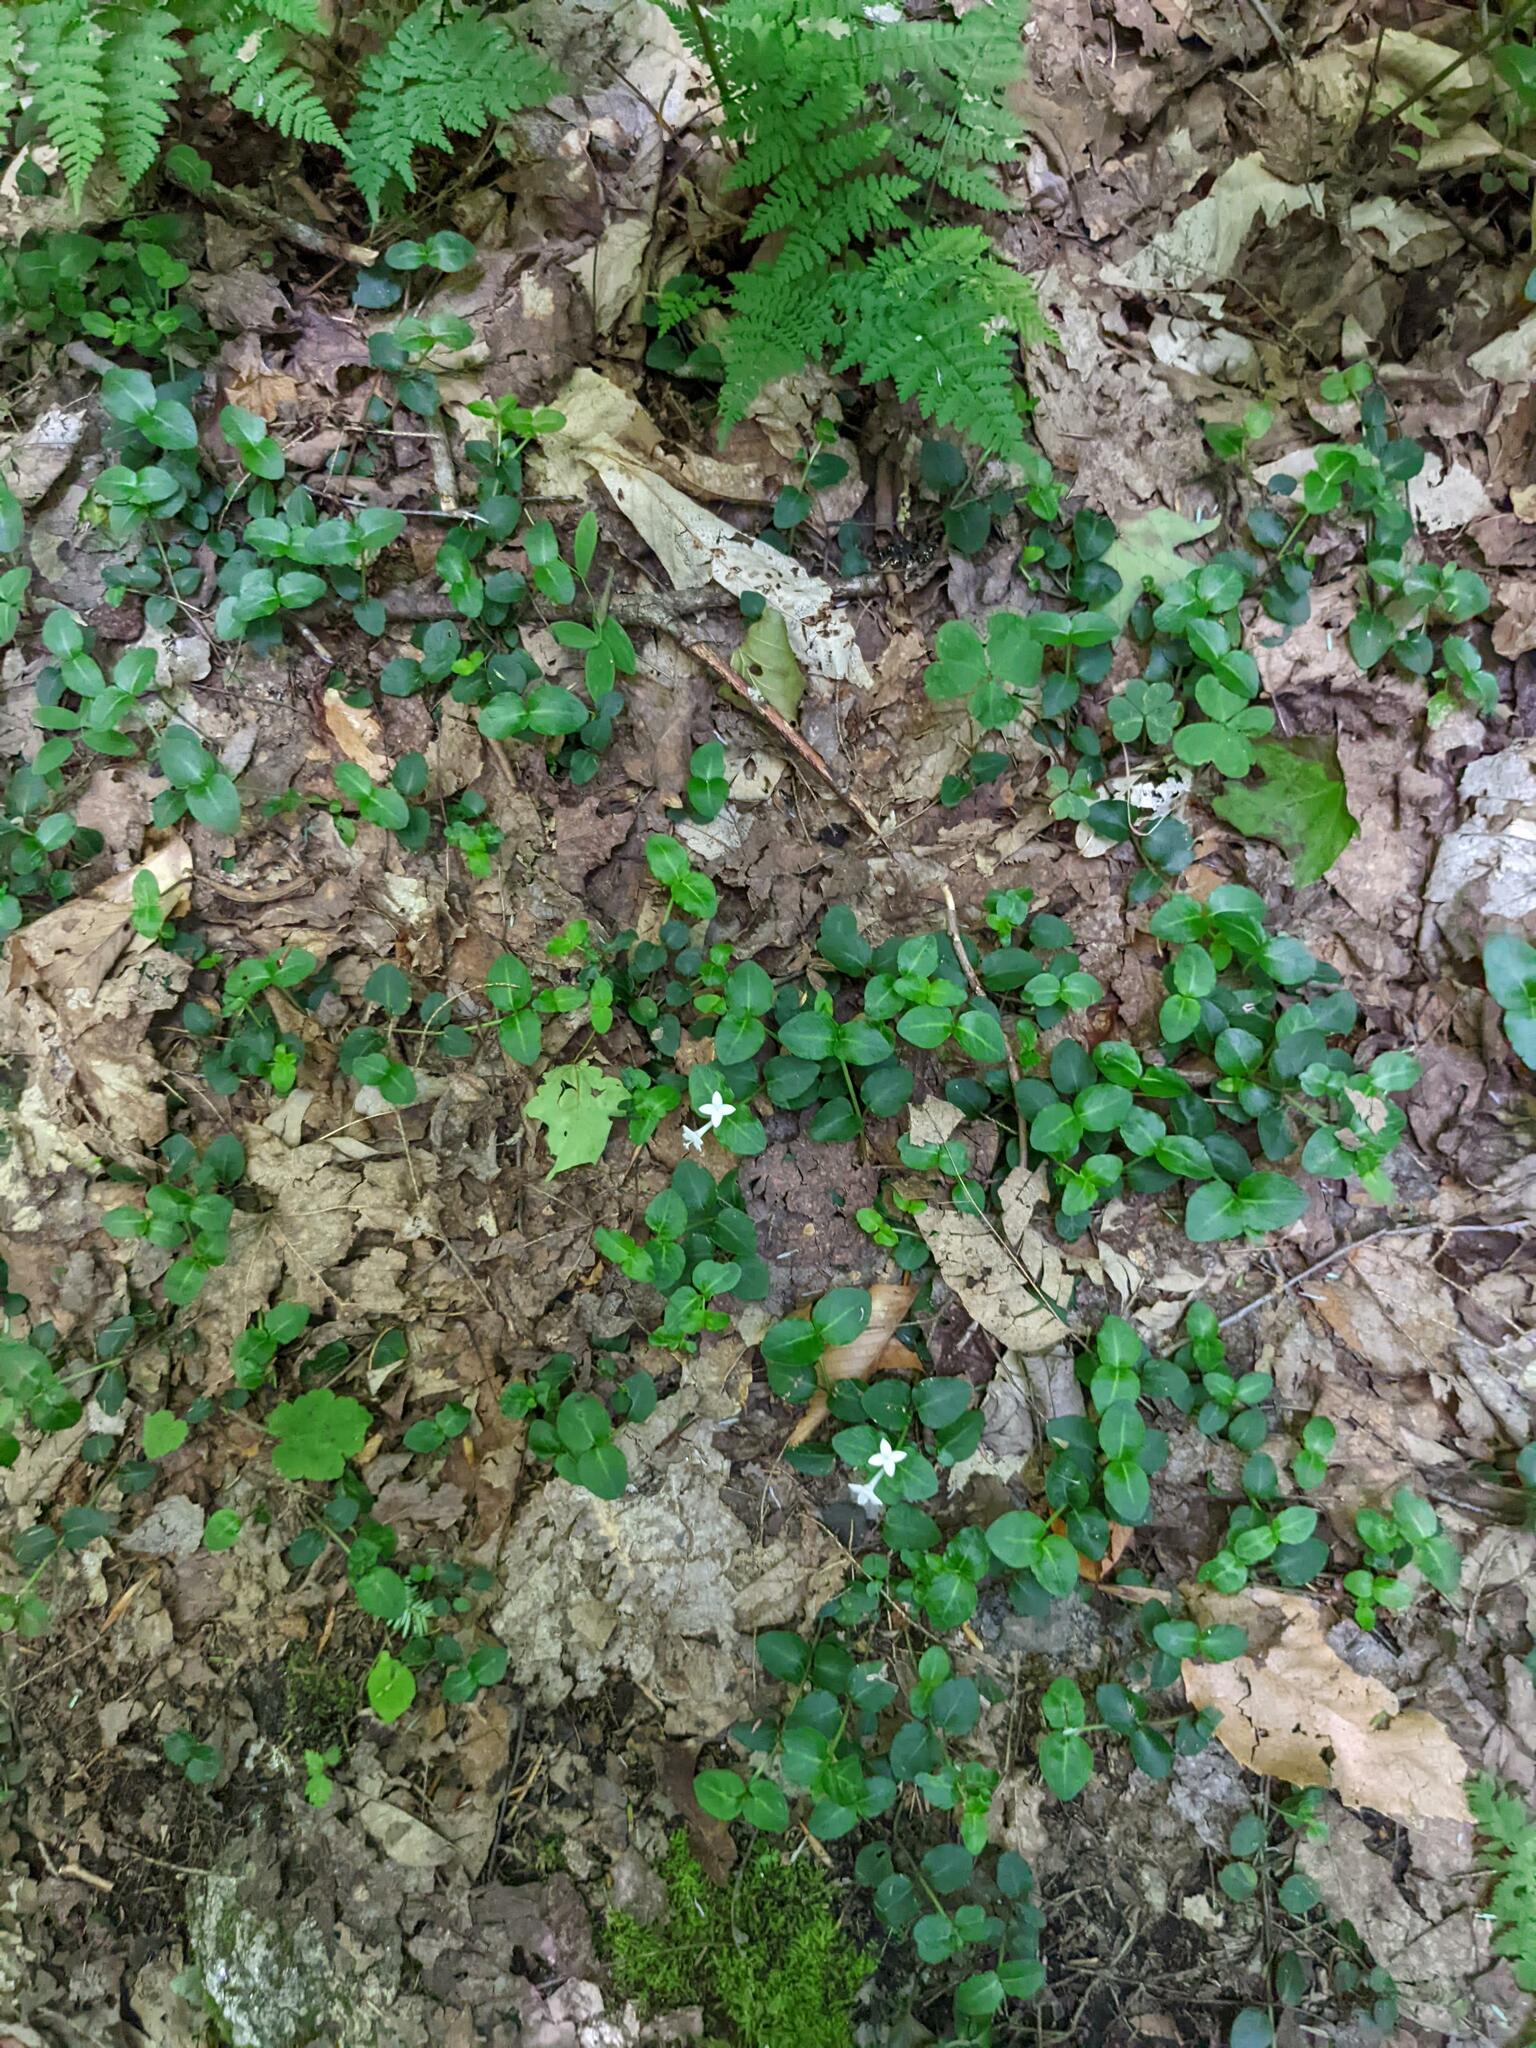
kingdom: Plantae
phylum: Tracheophyta
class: Magnoliopsida
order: Gentianales
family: Rubiaceae
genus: Mitchella
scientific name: Mitchella repens
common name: Partridge-berry
